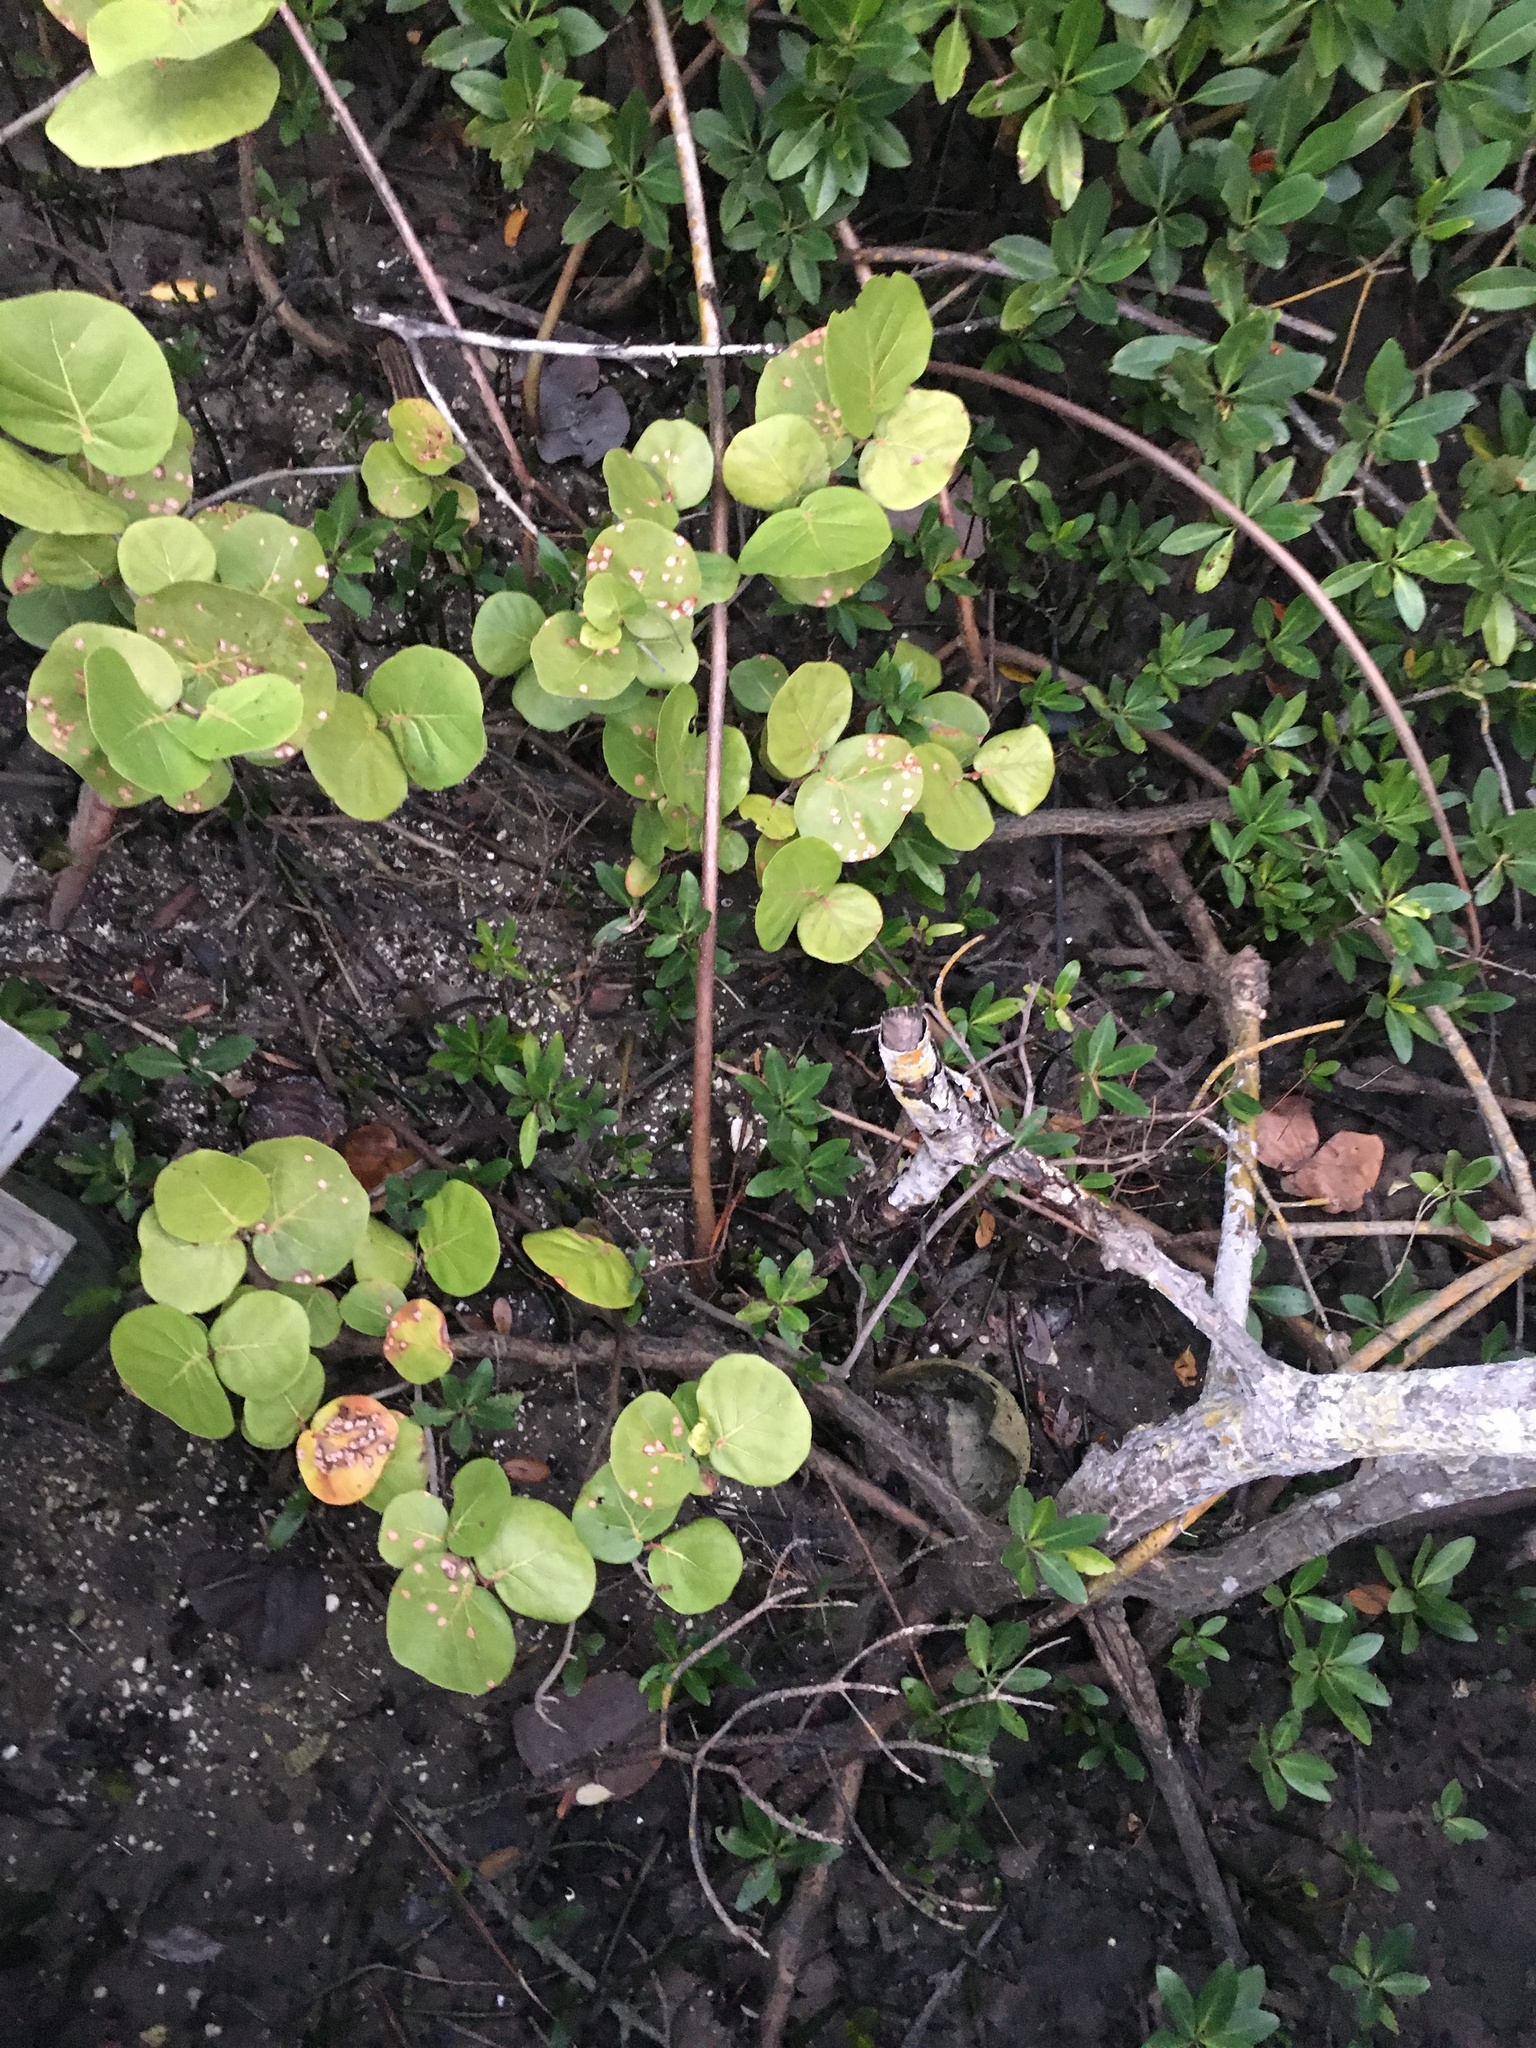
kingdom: Plantae
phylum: Tracheophyta
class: Magnoliopsida
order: Caryophyllales
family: Polygonaceae
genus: Coccoloba
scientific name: Coccoloba uvifera
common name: Seagrape
